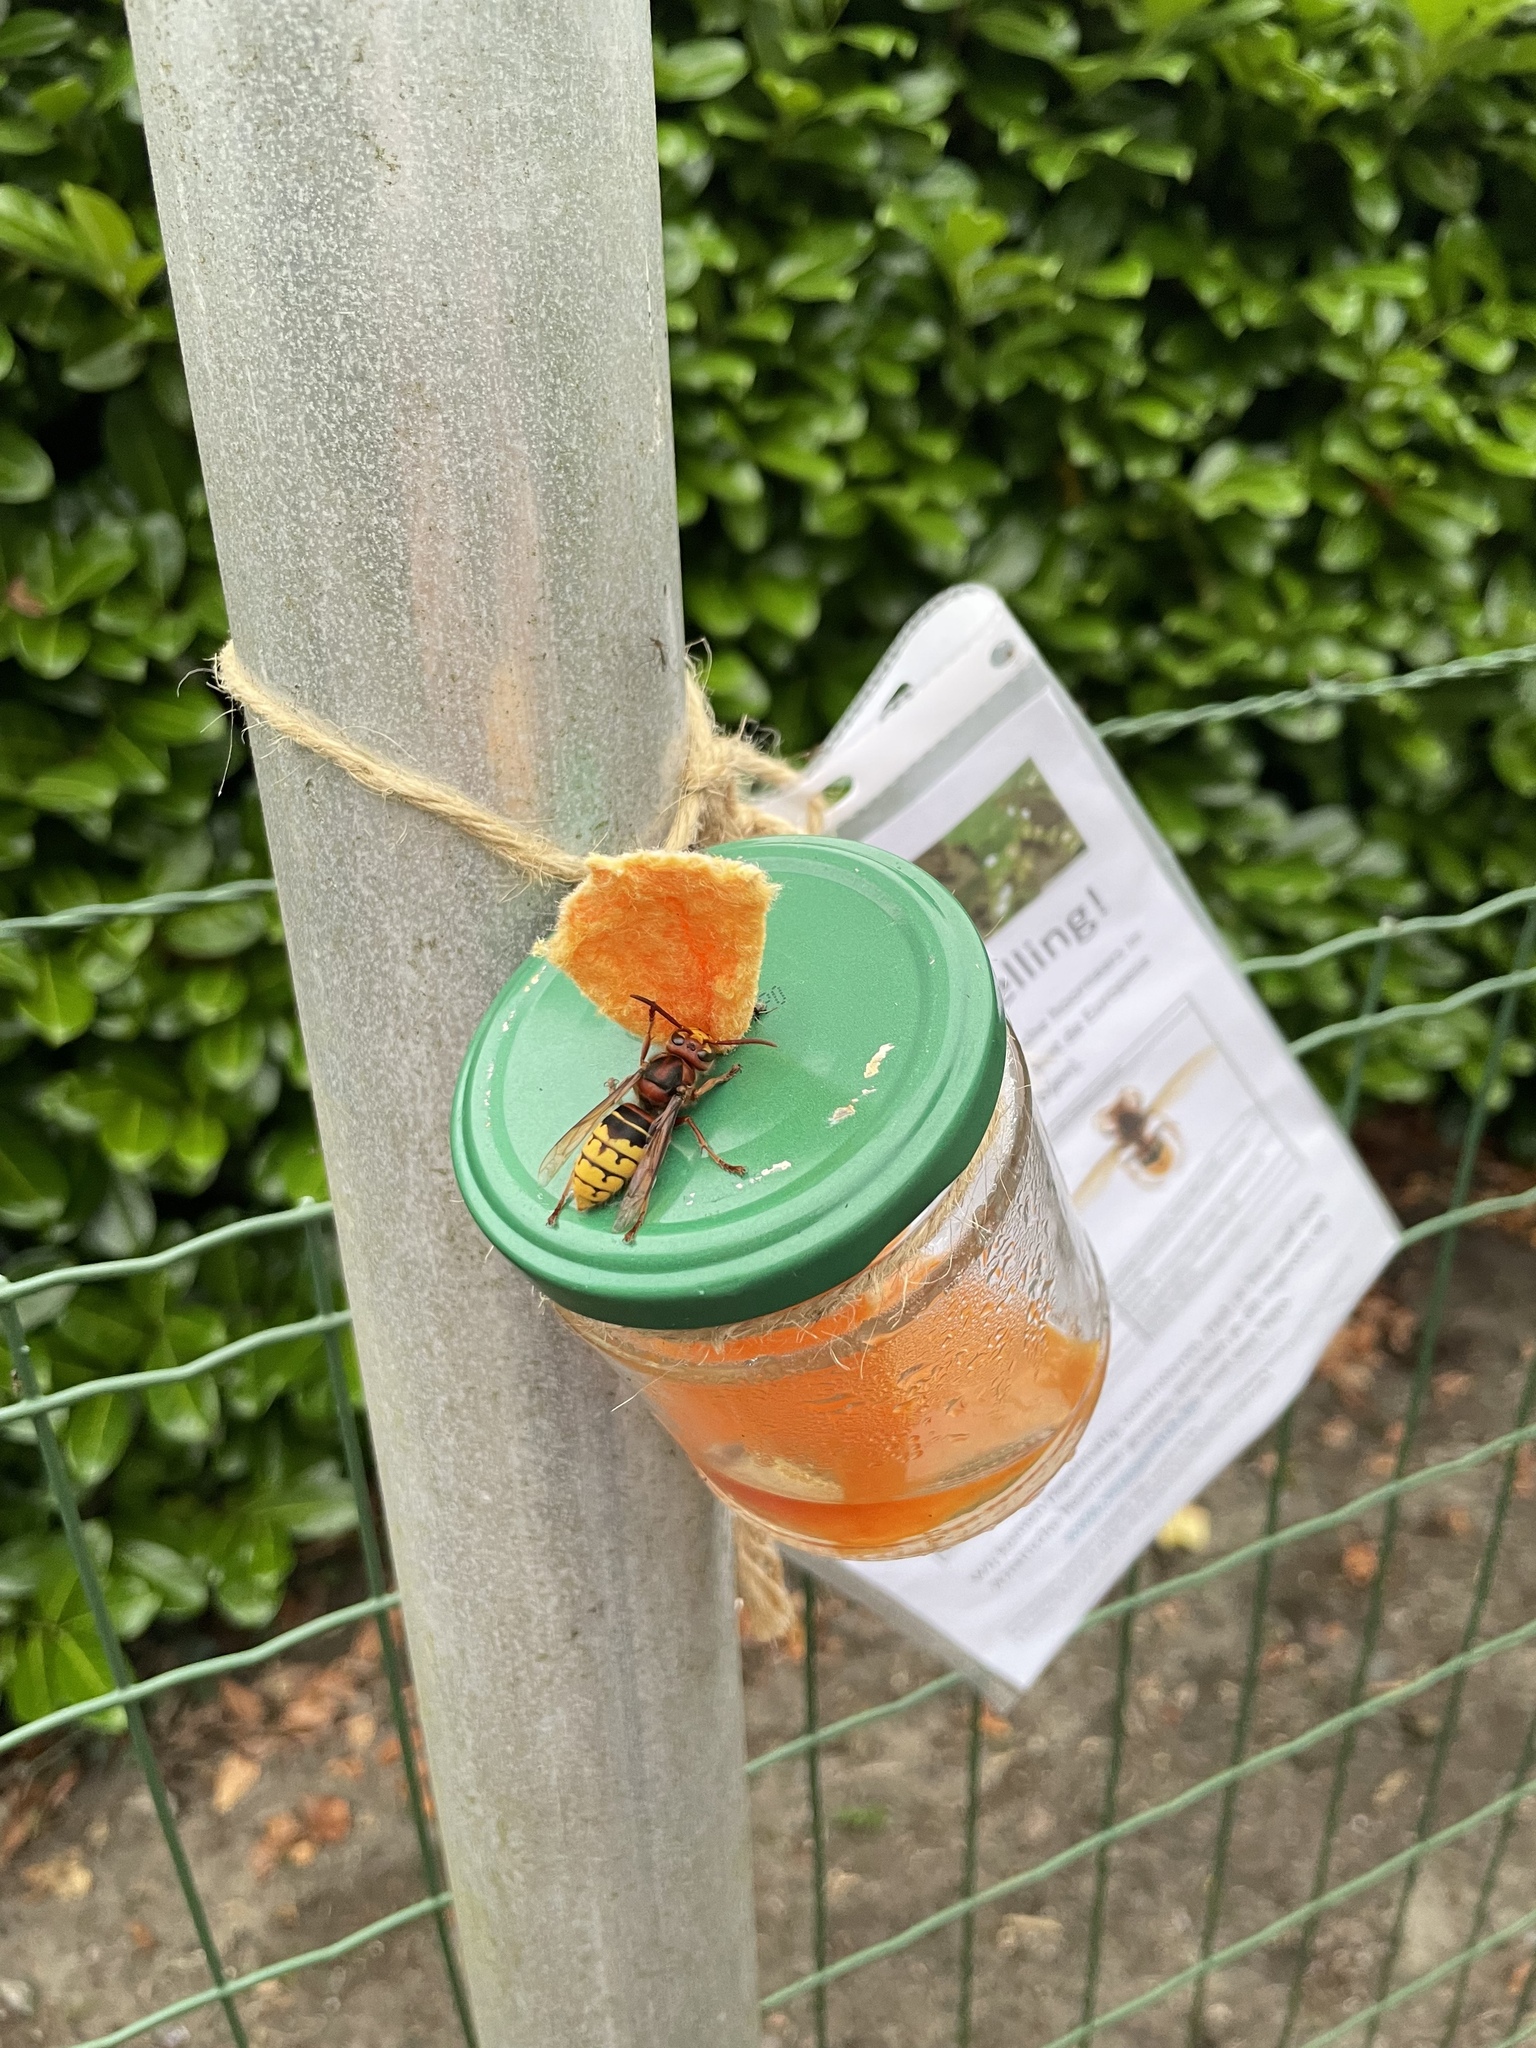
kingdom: Animalia
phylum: Arthropoda
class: Insecta
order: Hymenoptera
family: Vespidae
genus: Vespa
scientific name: Vespa crabro
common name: Hornet
